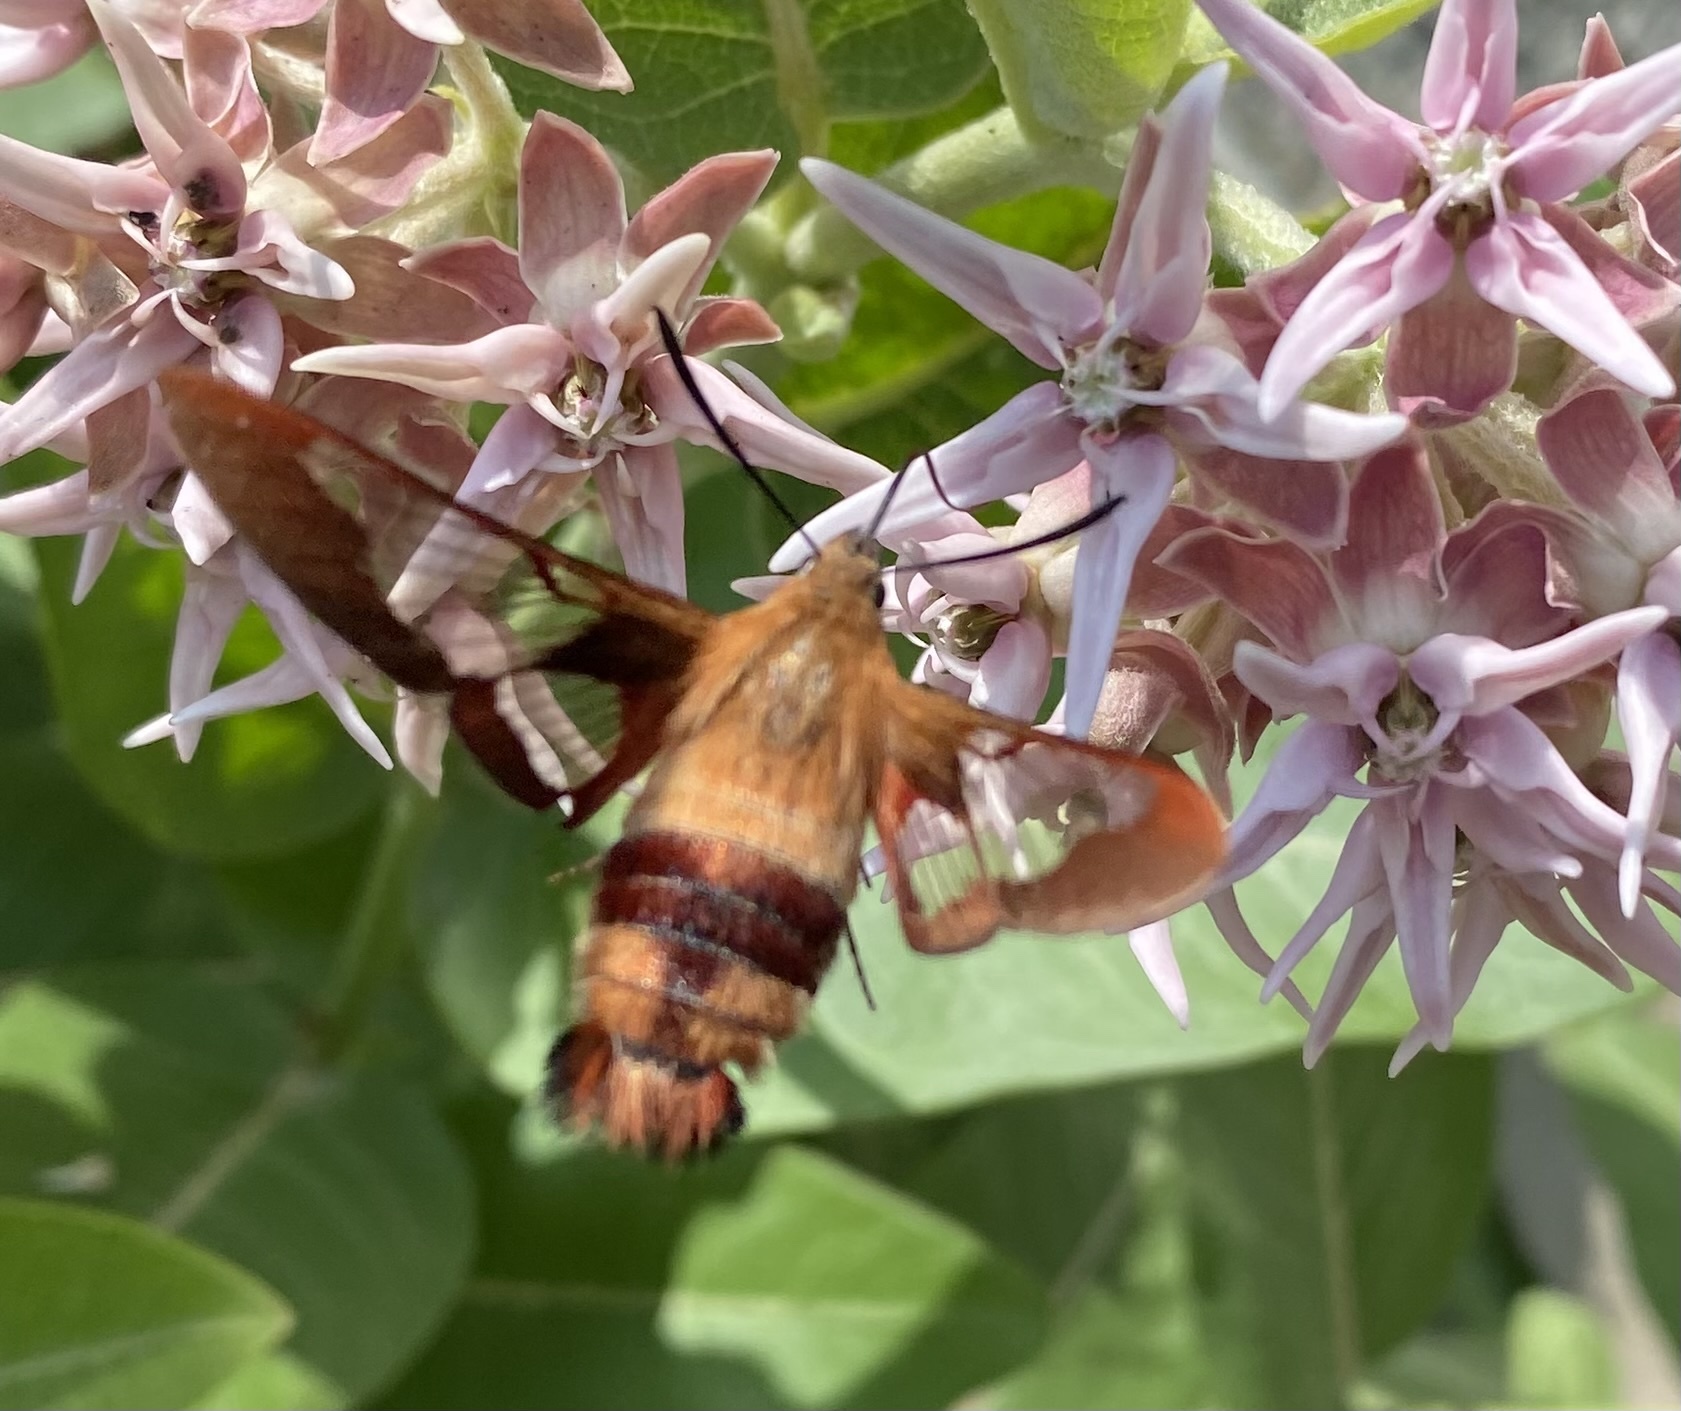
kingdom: Animalia
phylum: Arthropoda
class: Insecta
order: Lepidoptera
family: Sphingidae
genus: Hemaris
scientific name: Hemaris thysbe
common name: Common clear-wing
